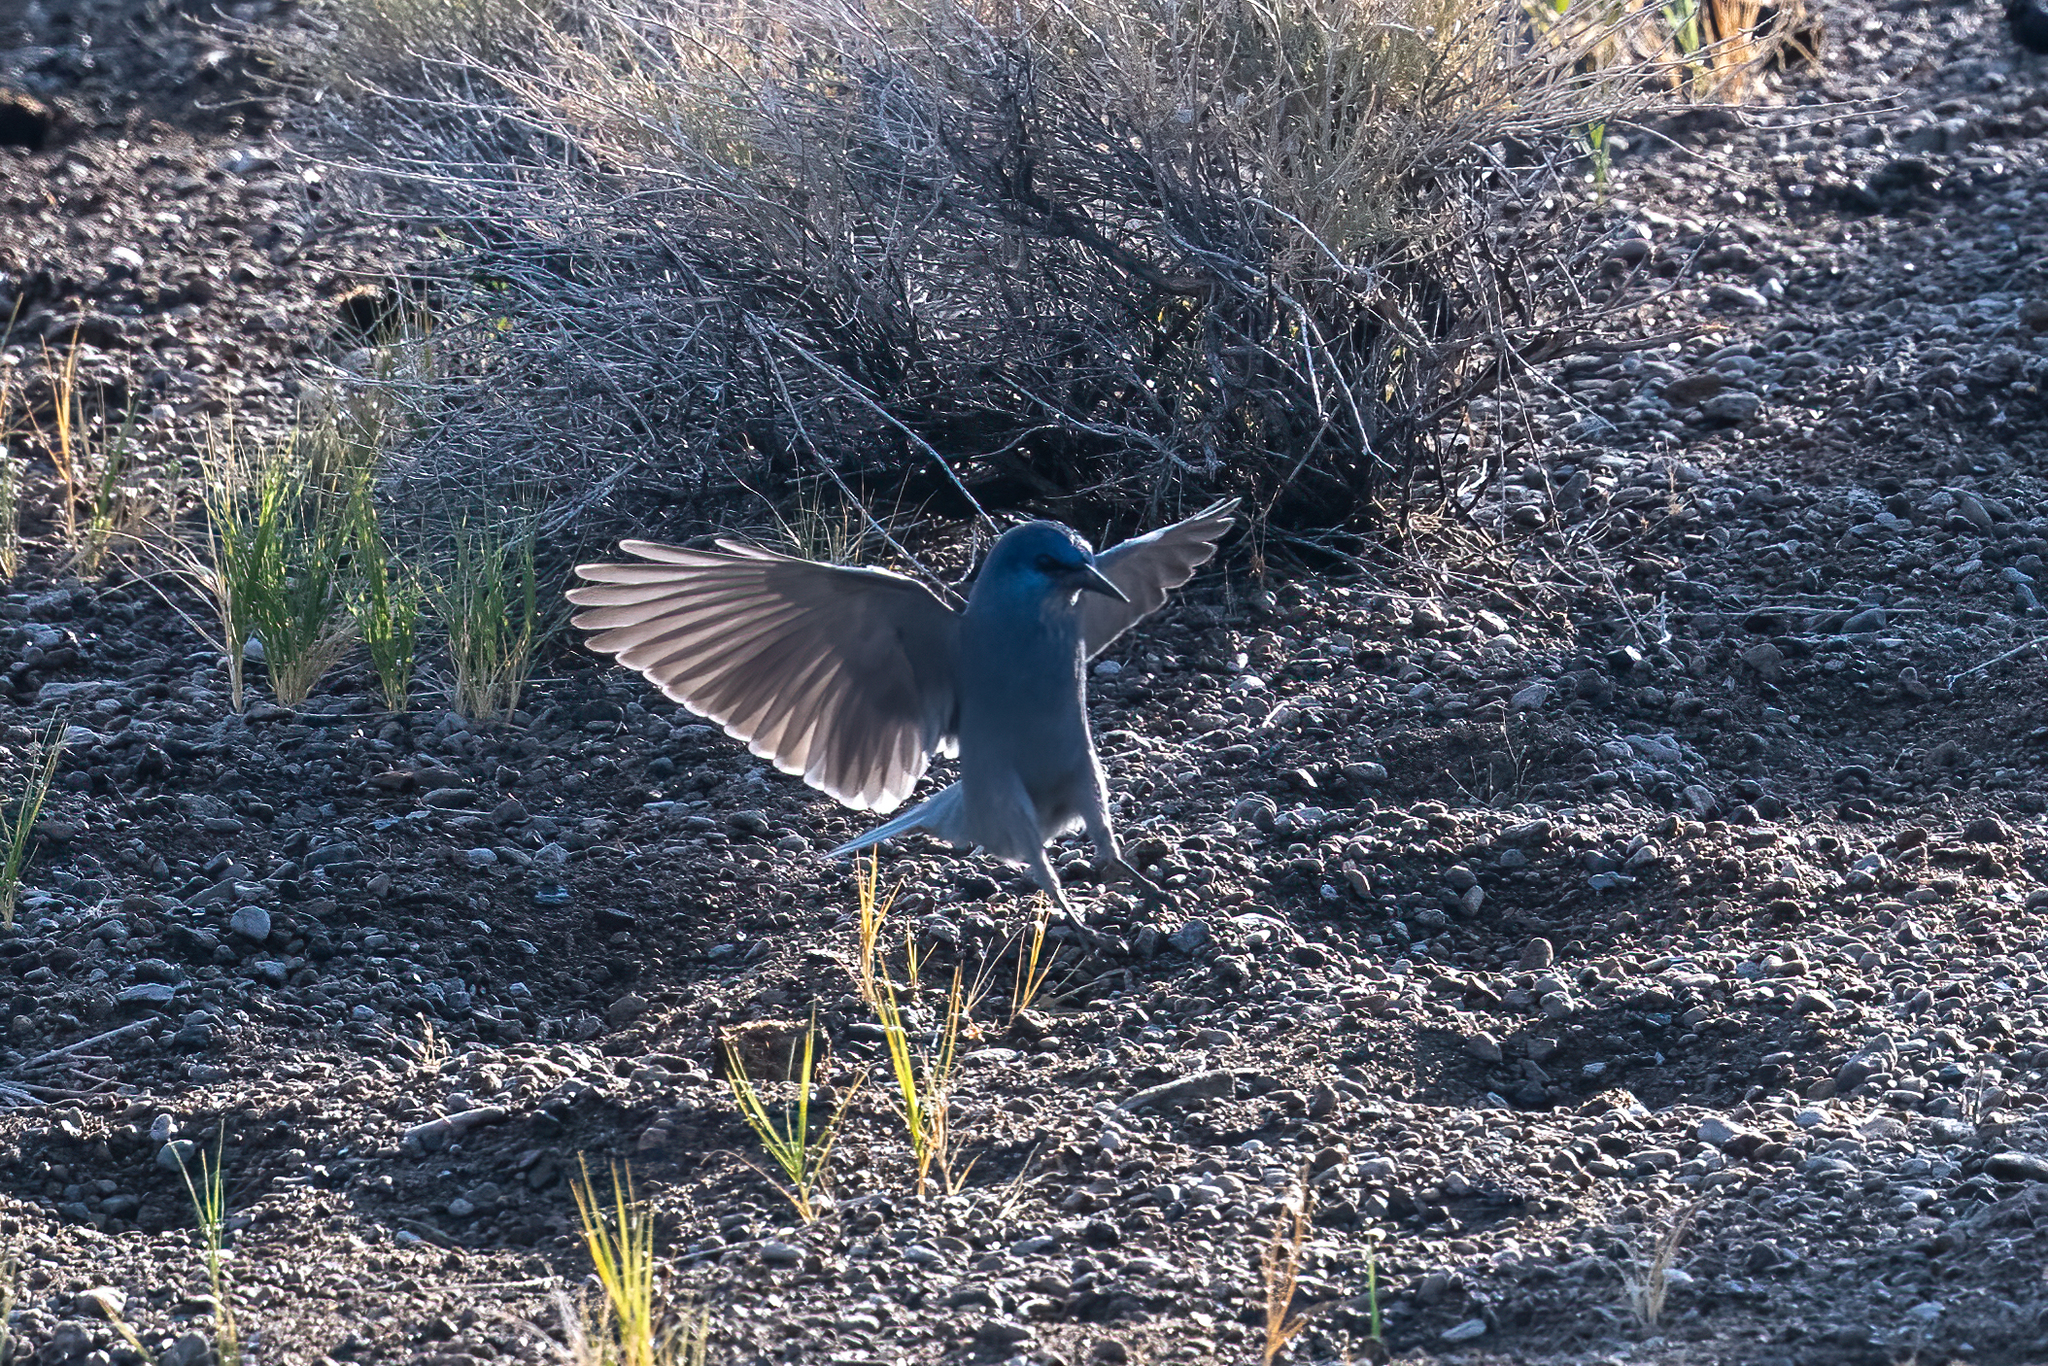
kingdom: Animalia
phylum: Chordata
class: Aves
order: Passeriformes
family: Corvidae
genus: Gymnorhinus
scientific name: Gymnorhinus cyanocephalus
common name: Pinyon jay
